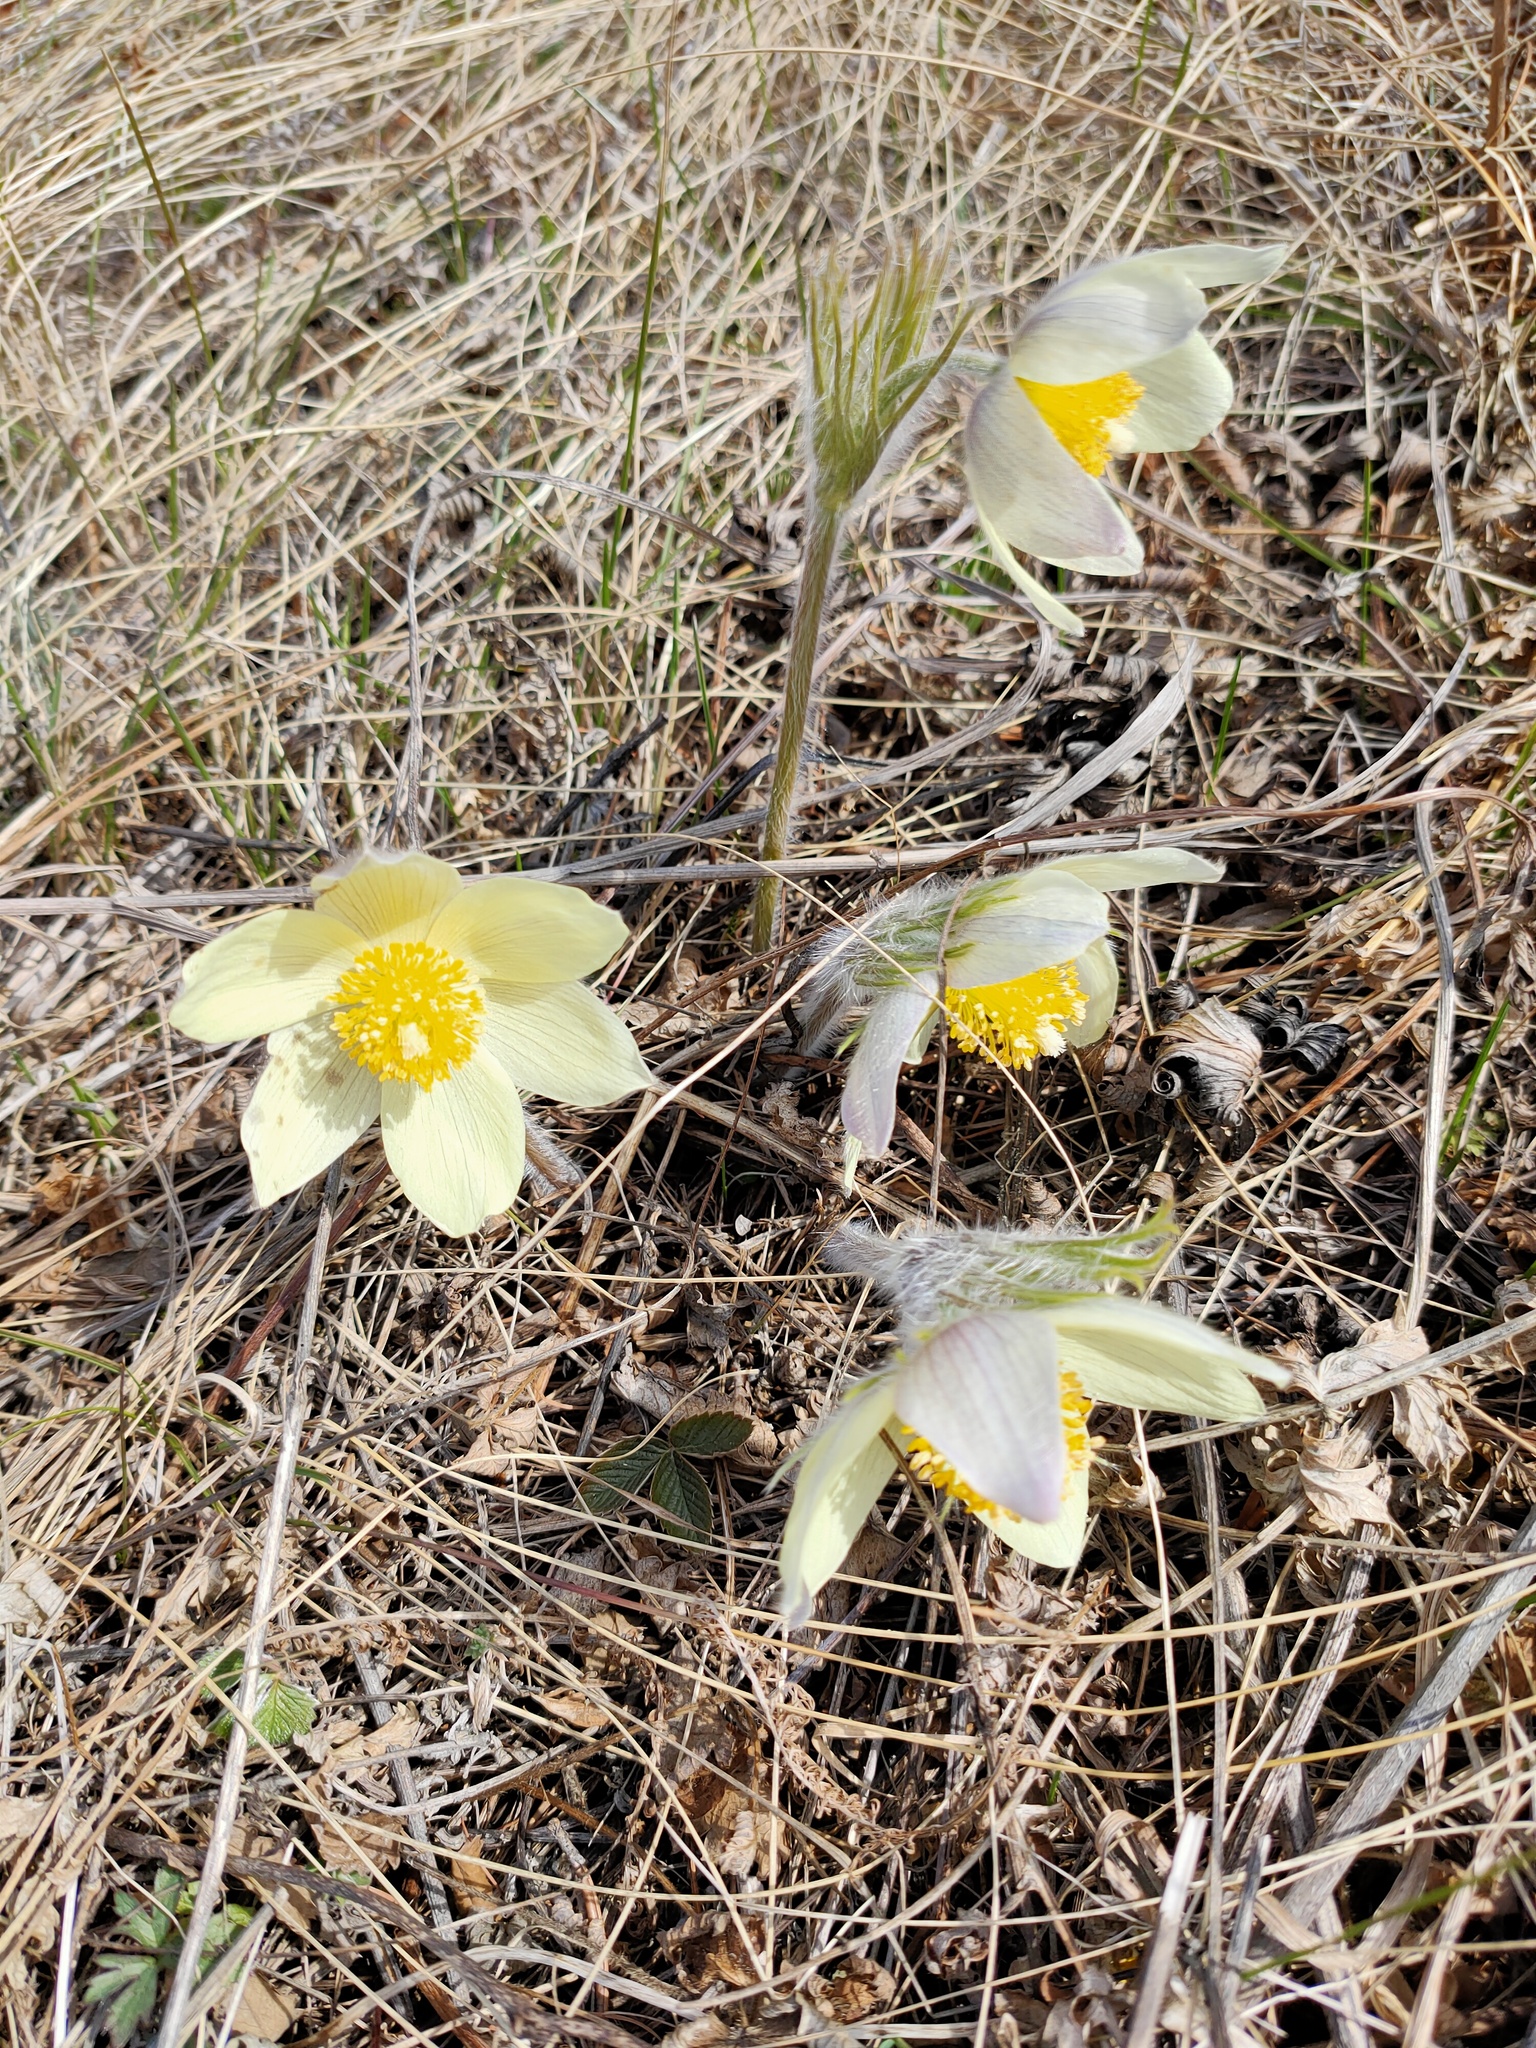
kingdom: Plantae
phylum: Tracheophyta
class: Magnoliopsida
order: Ranunculales
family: Ranunculaceae
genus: Pulsatilla
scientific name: Pulsatilla patens
